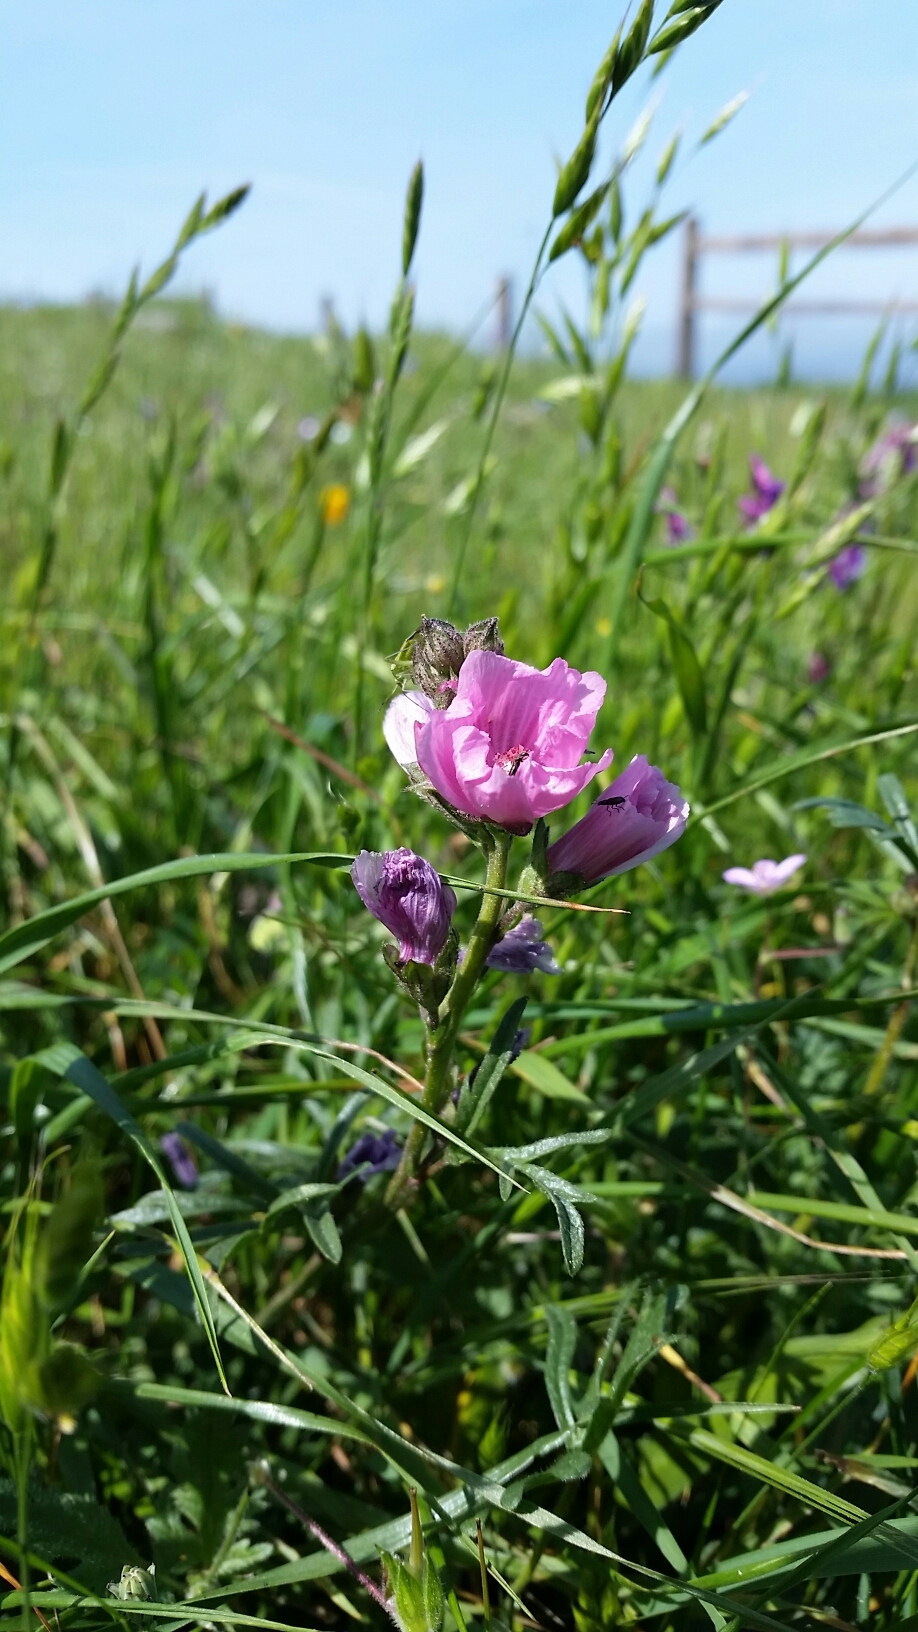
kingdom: Plantae
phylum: Tracheophyta
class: Magnoliopsida
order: Malvales
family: Malvaceae
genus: Sidalcea
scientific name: Sidalcea malviflora
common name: Greek mallow
